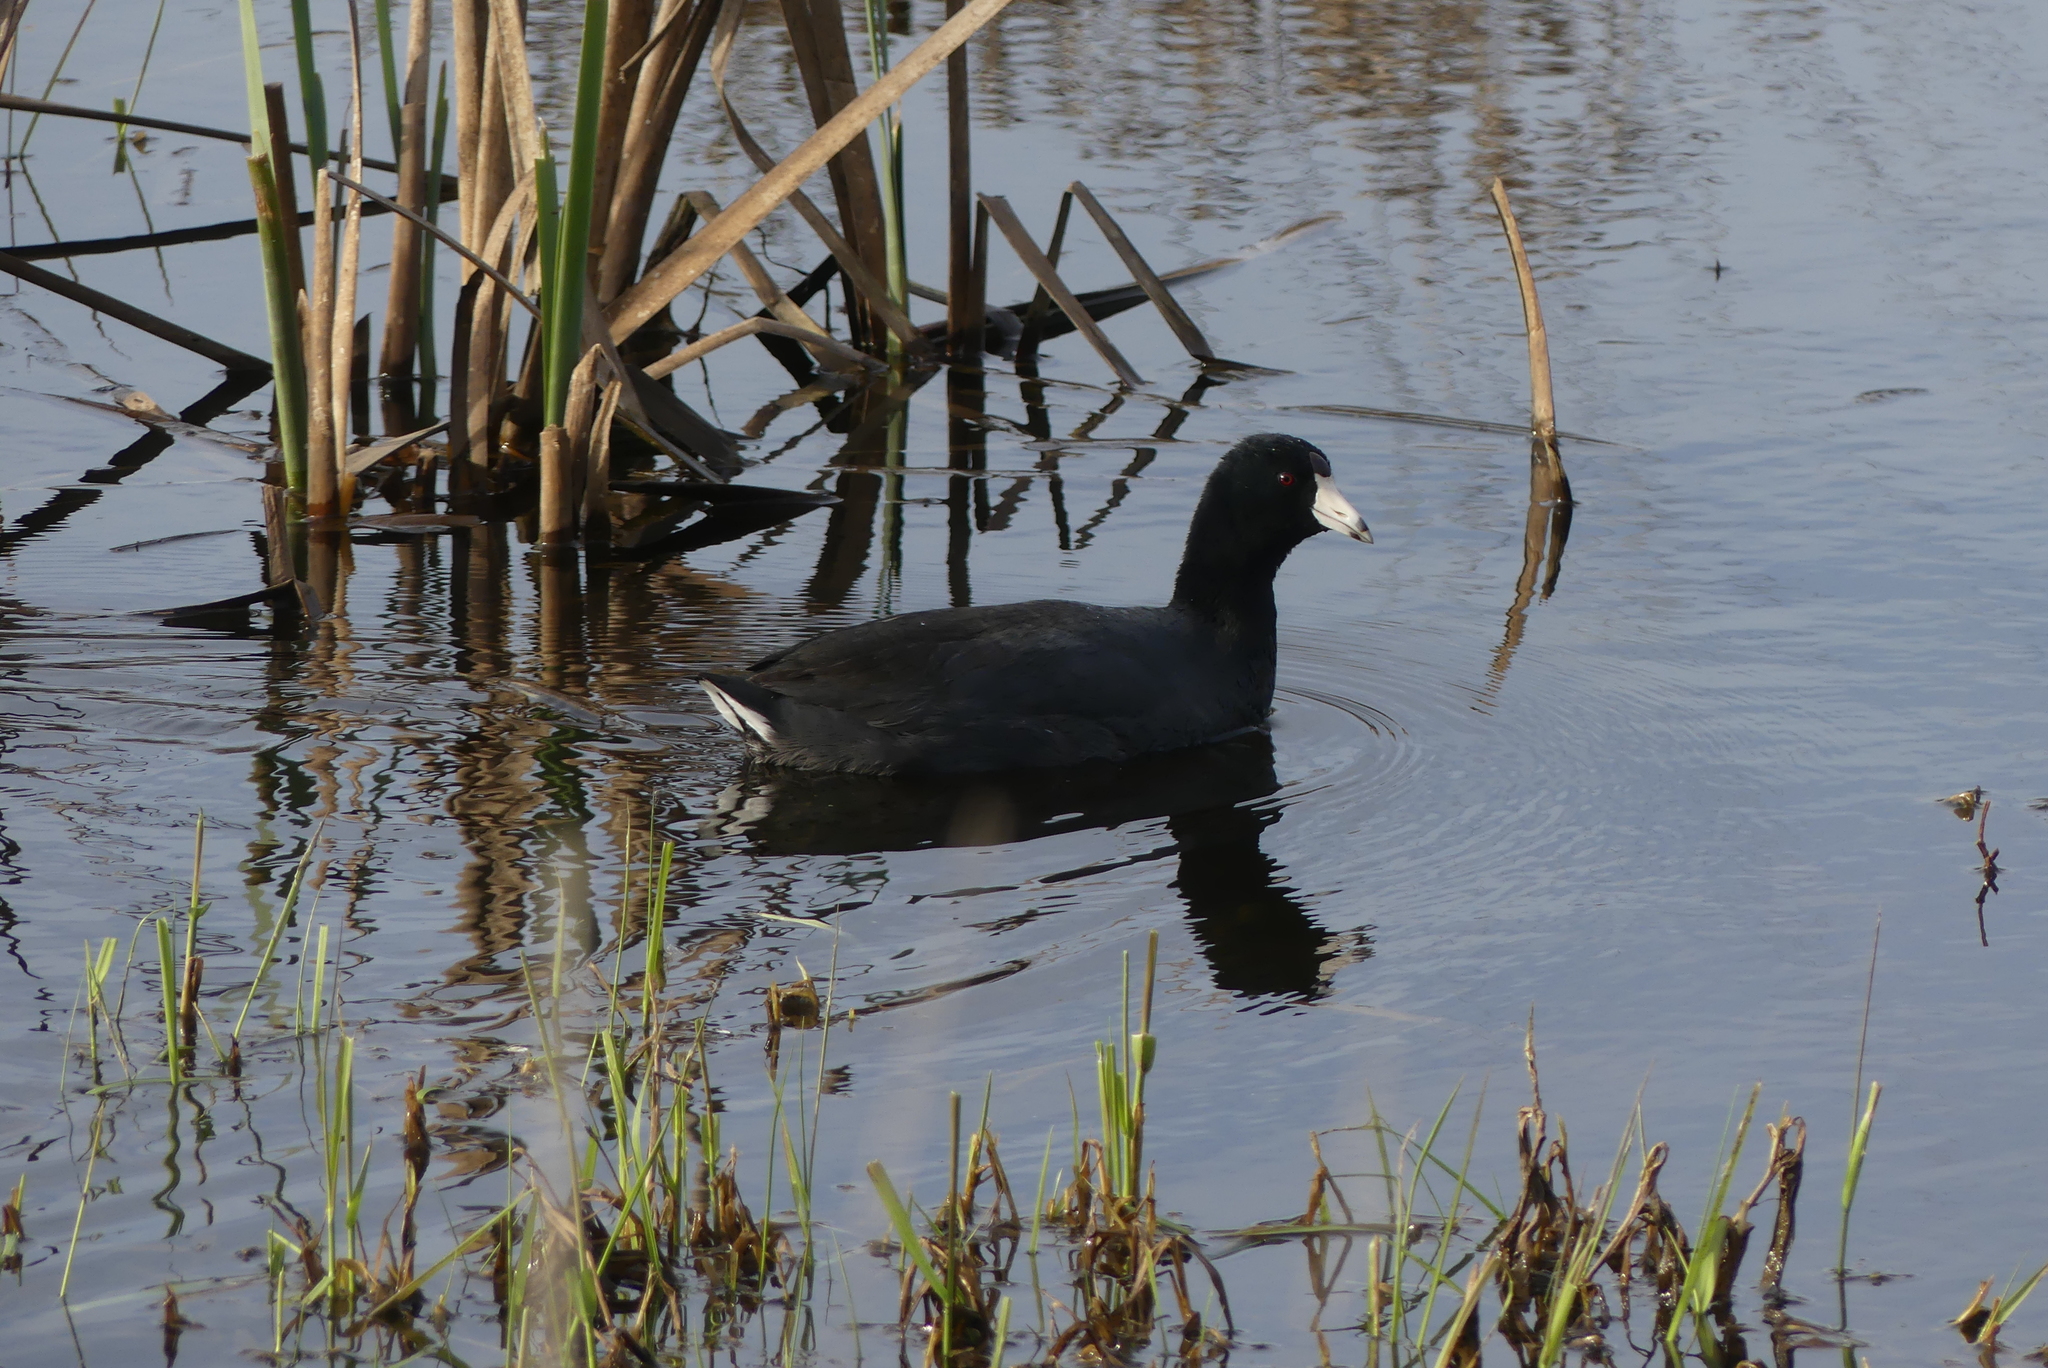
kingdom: Animalia
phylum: Chordata
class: Aves
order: Gruiformes
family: Rallidae
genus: Fulica
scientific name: Fulica americana
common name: American coot
